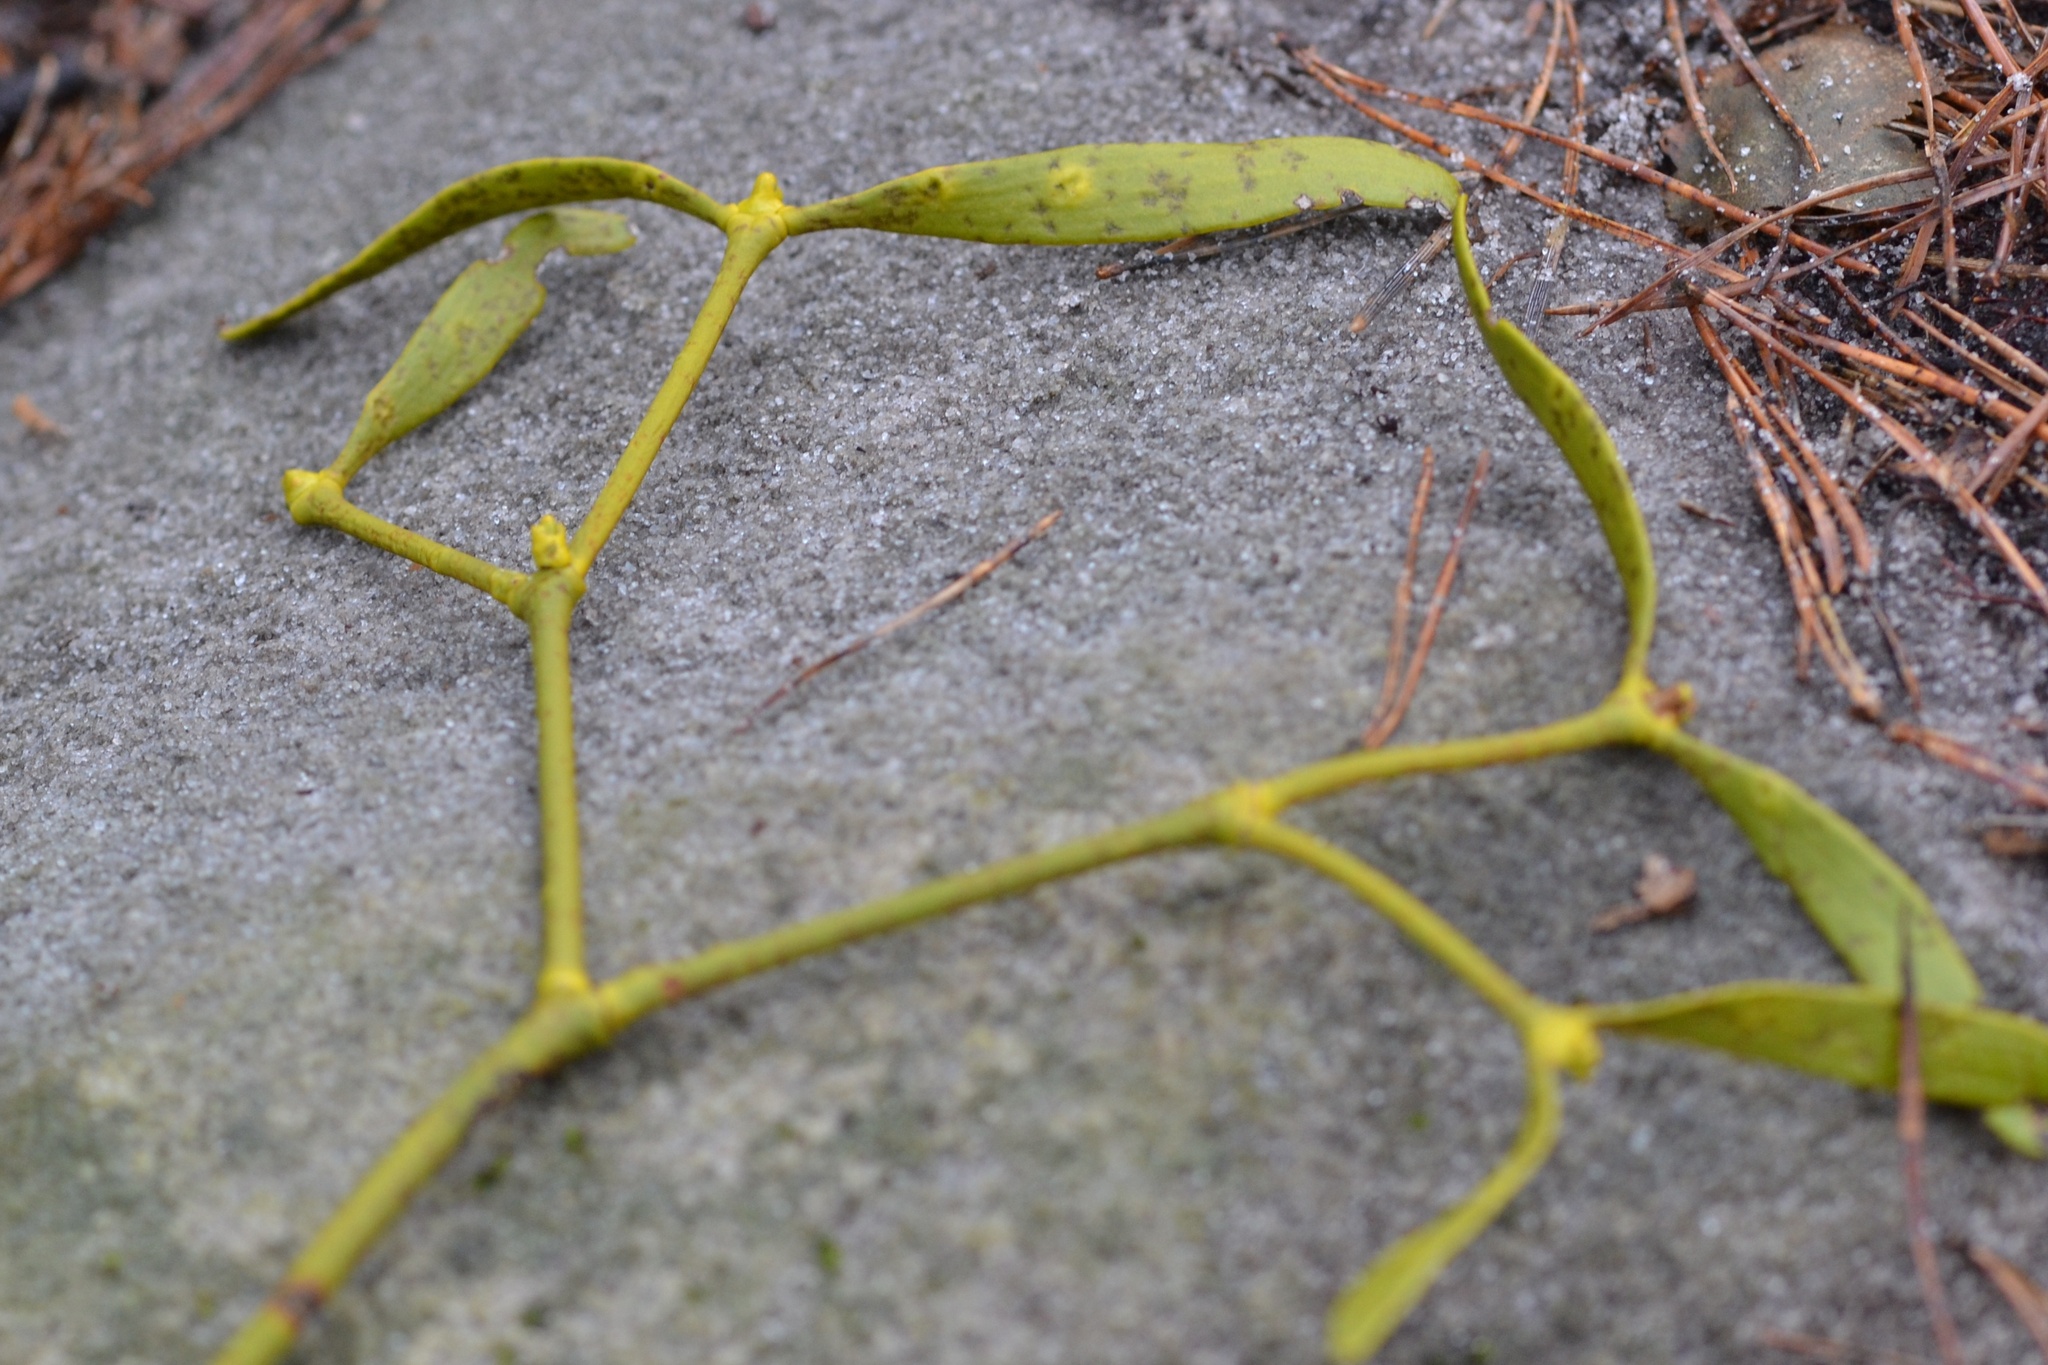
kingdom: Plantae
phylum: Tracheophyta
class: Magnoliopsida
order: Santalales
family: Viscaceae
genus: Viscum
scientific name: Viscum laxum
